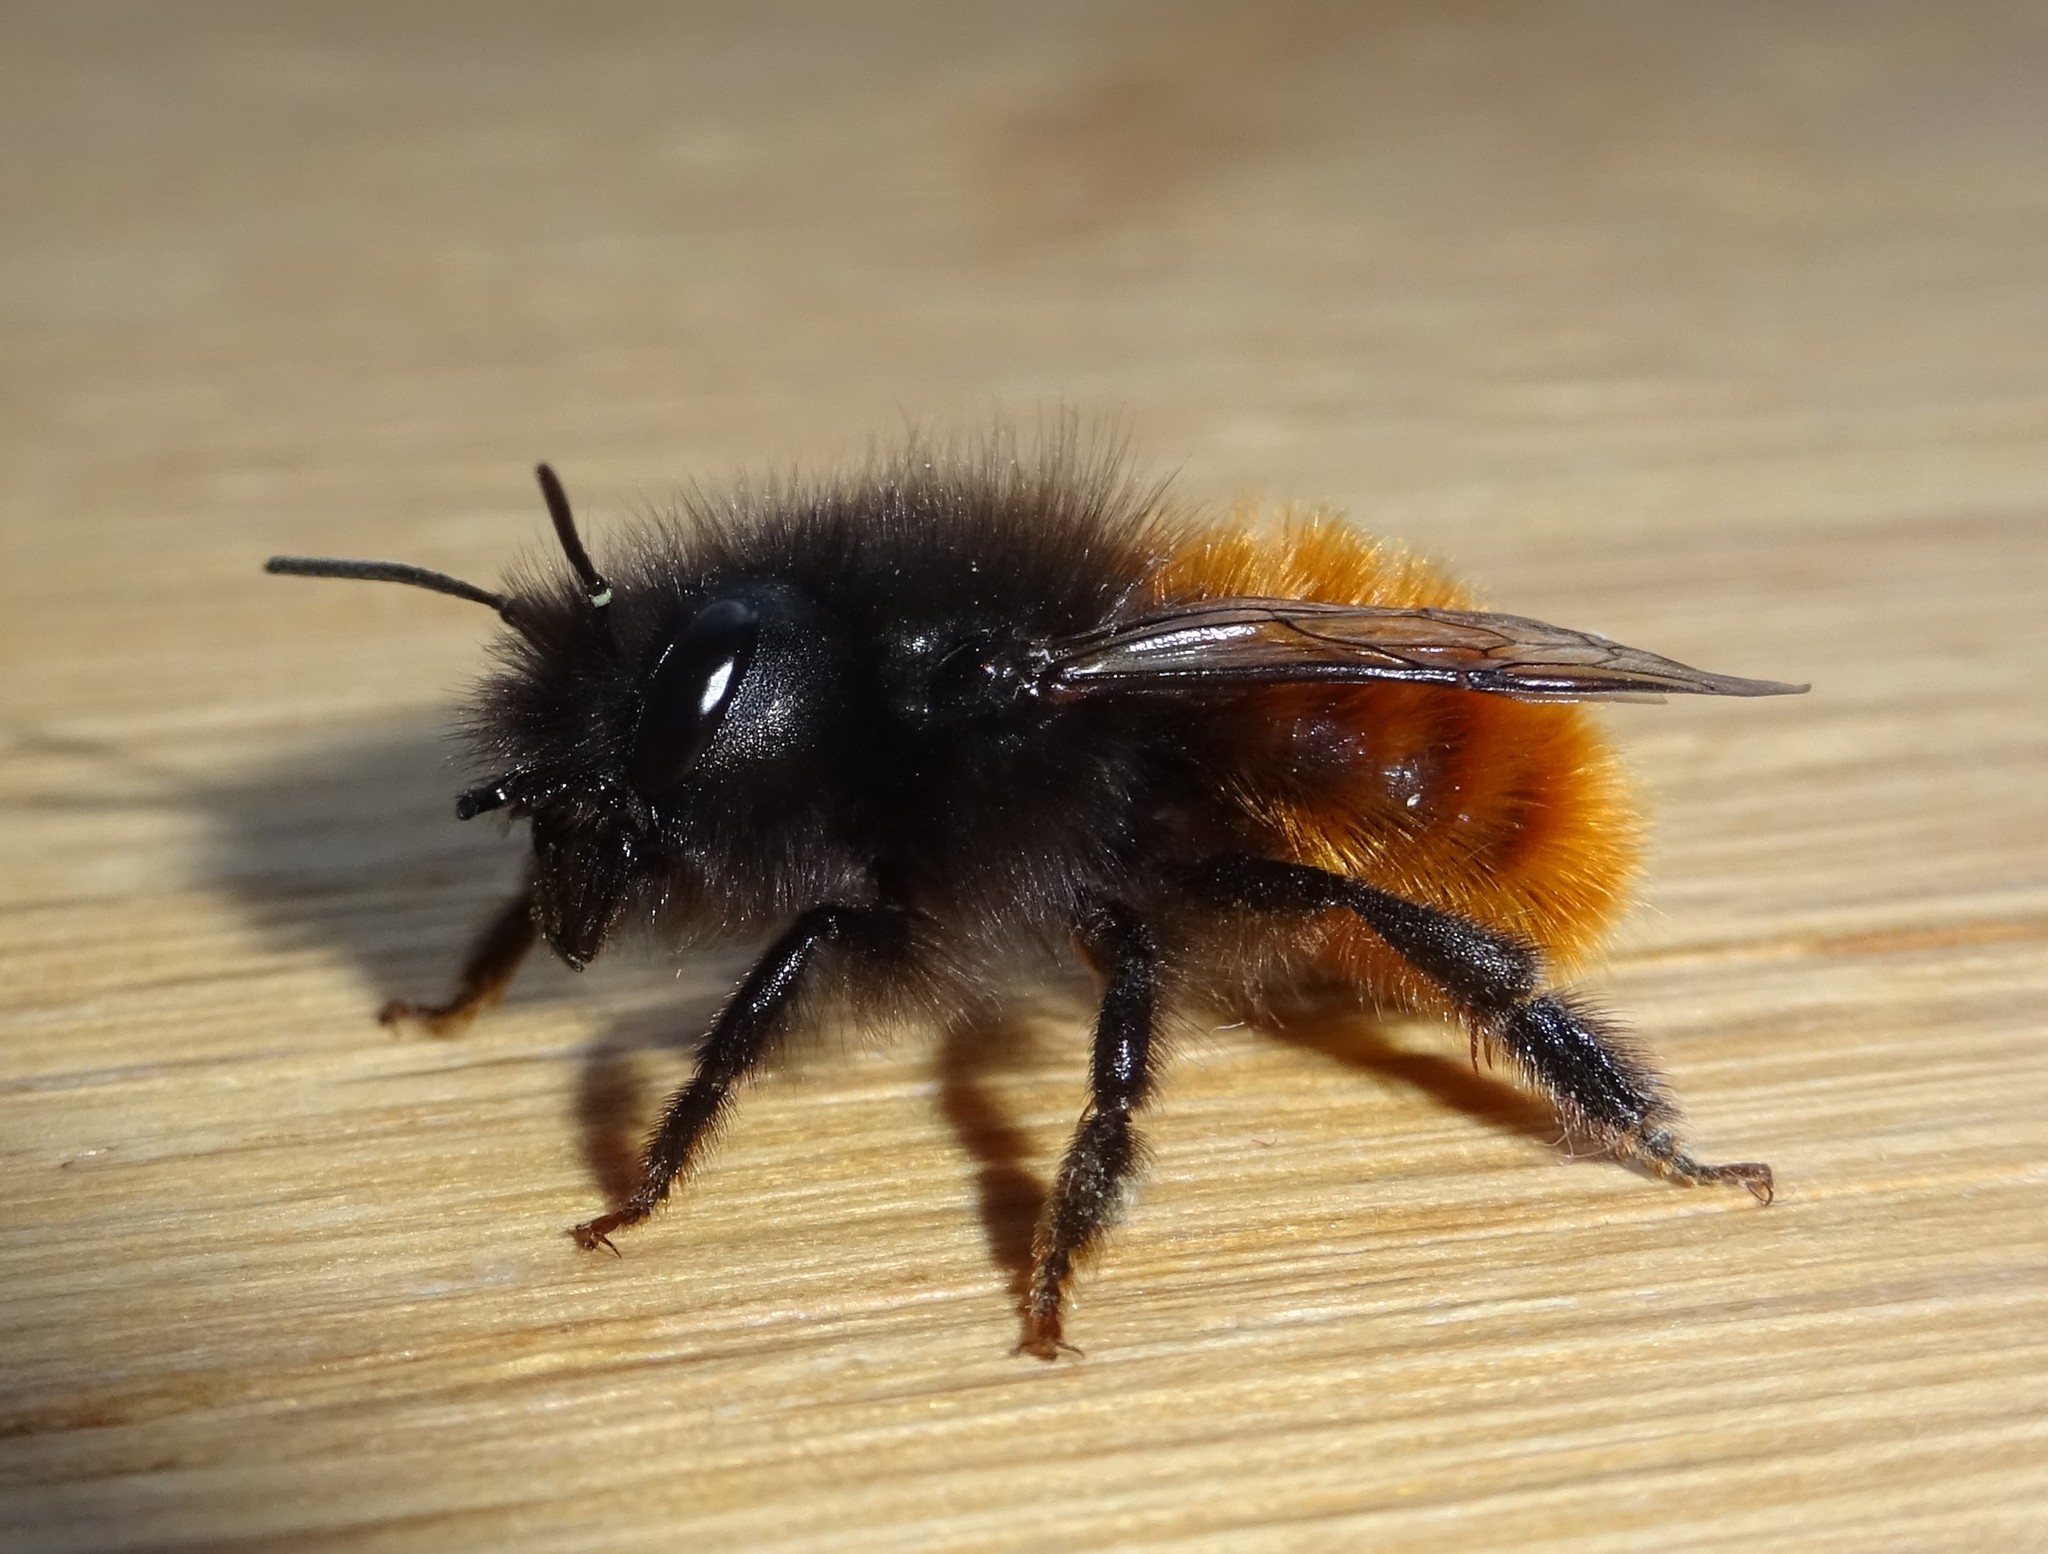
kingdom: Animalia
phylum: Arthropoda
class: Insecta
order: Hymenoptera
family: Megachilidae
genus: Osmia
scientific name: Osmia cornuta
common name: Mason bee
